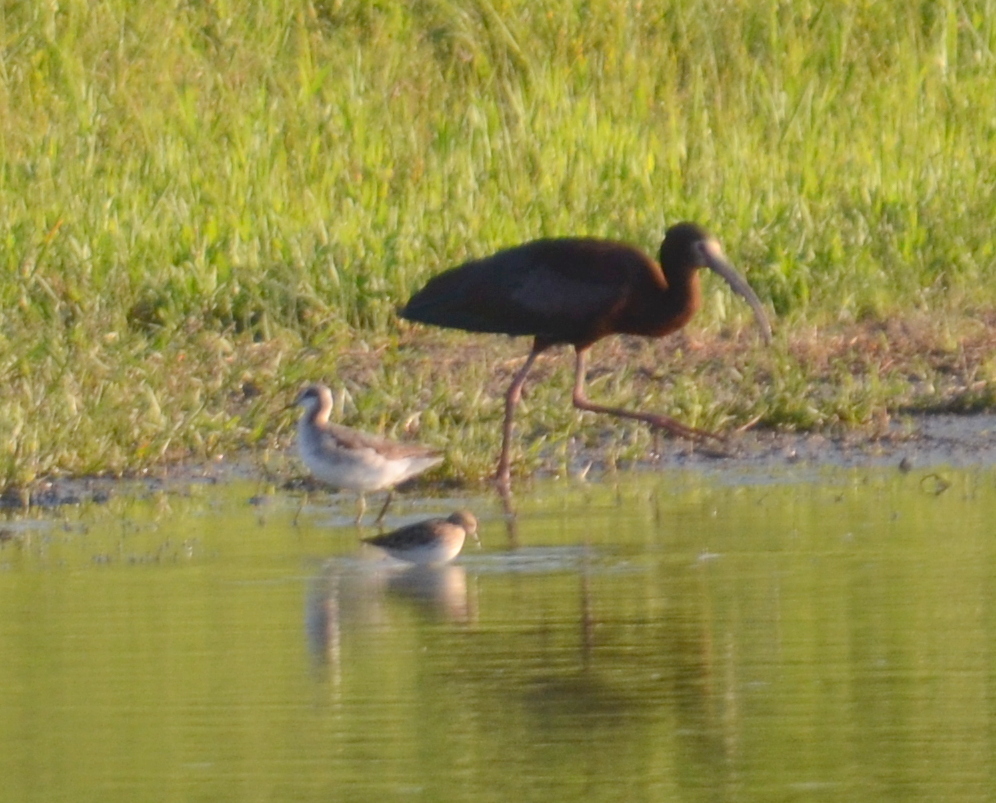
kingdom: Animalia
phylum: Chordata
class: Aves
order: Charadriiformes
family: Scolopacidae
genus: Phalaropus
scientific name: Phalaropus tricolor
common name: Wilson's phalarope
